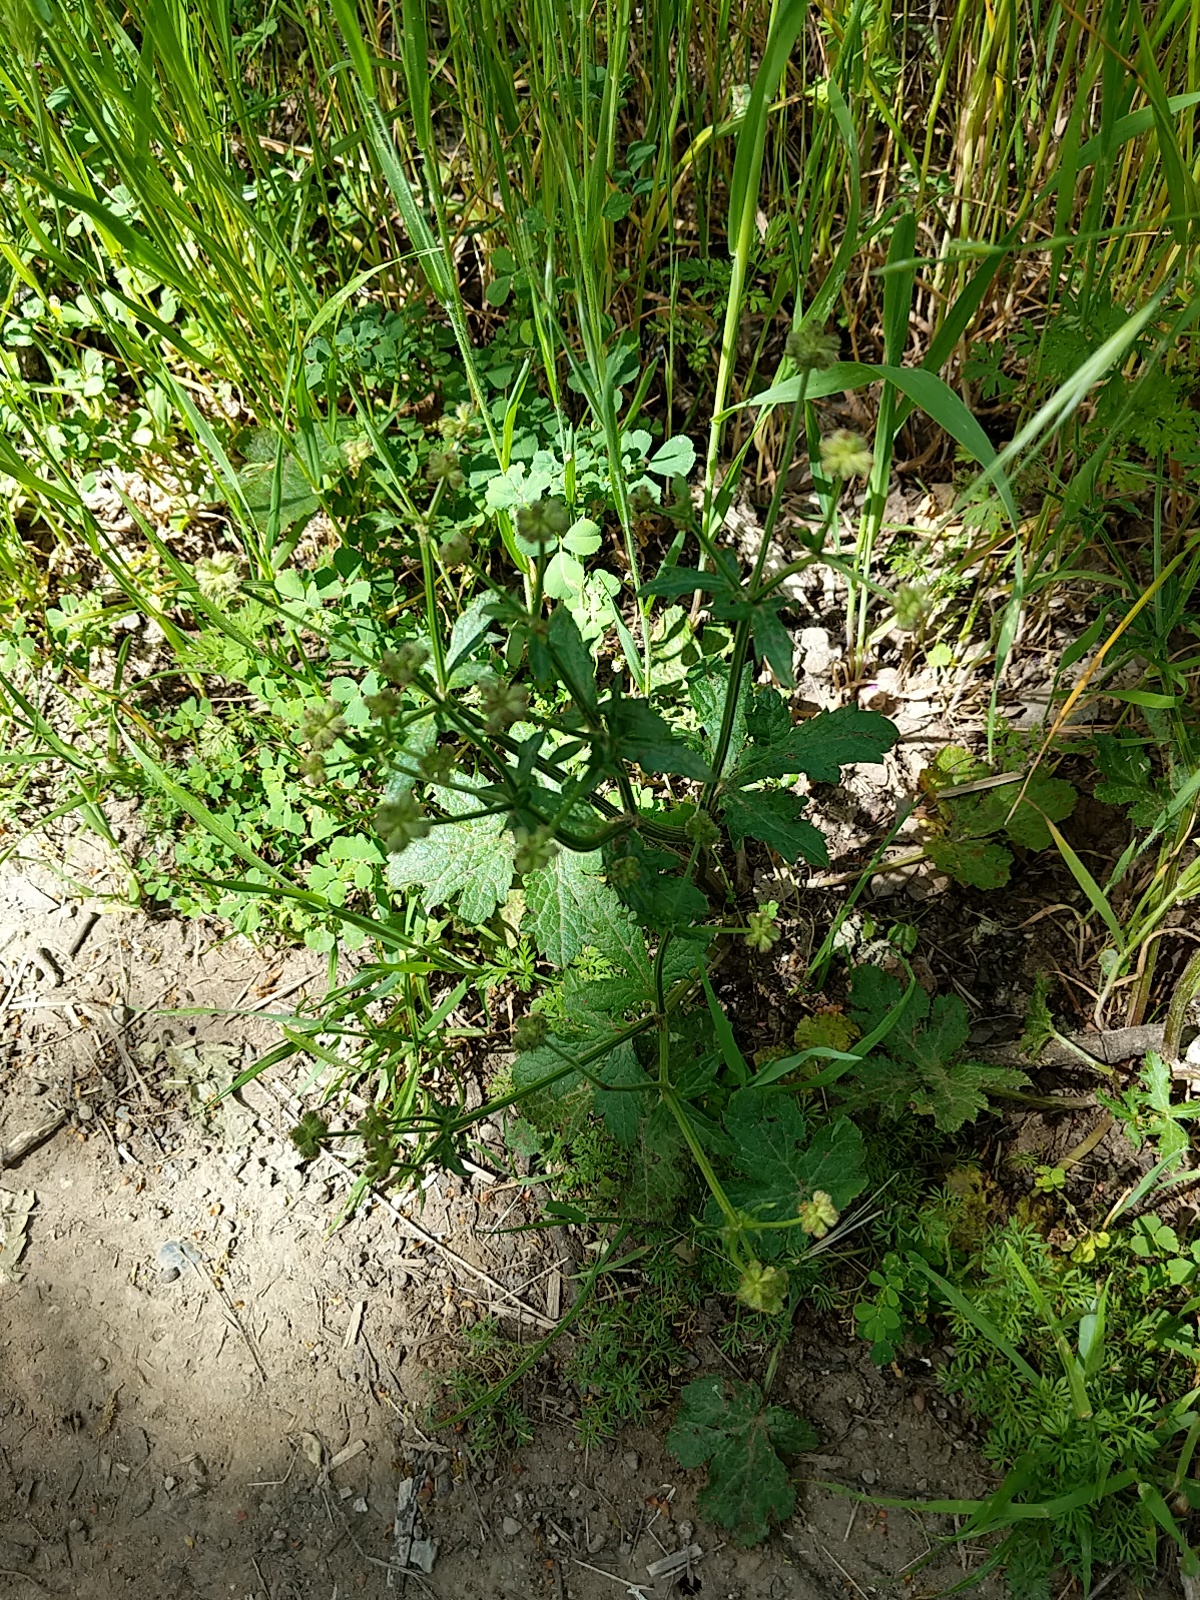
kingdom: Plantae
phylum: Tracheophyta
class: Magnoliopsida
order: Apiales
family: Apiaceae
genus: Sanicula
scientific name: Sanicula crassicaulis
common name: Western snakeroot
